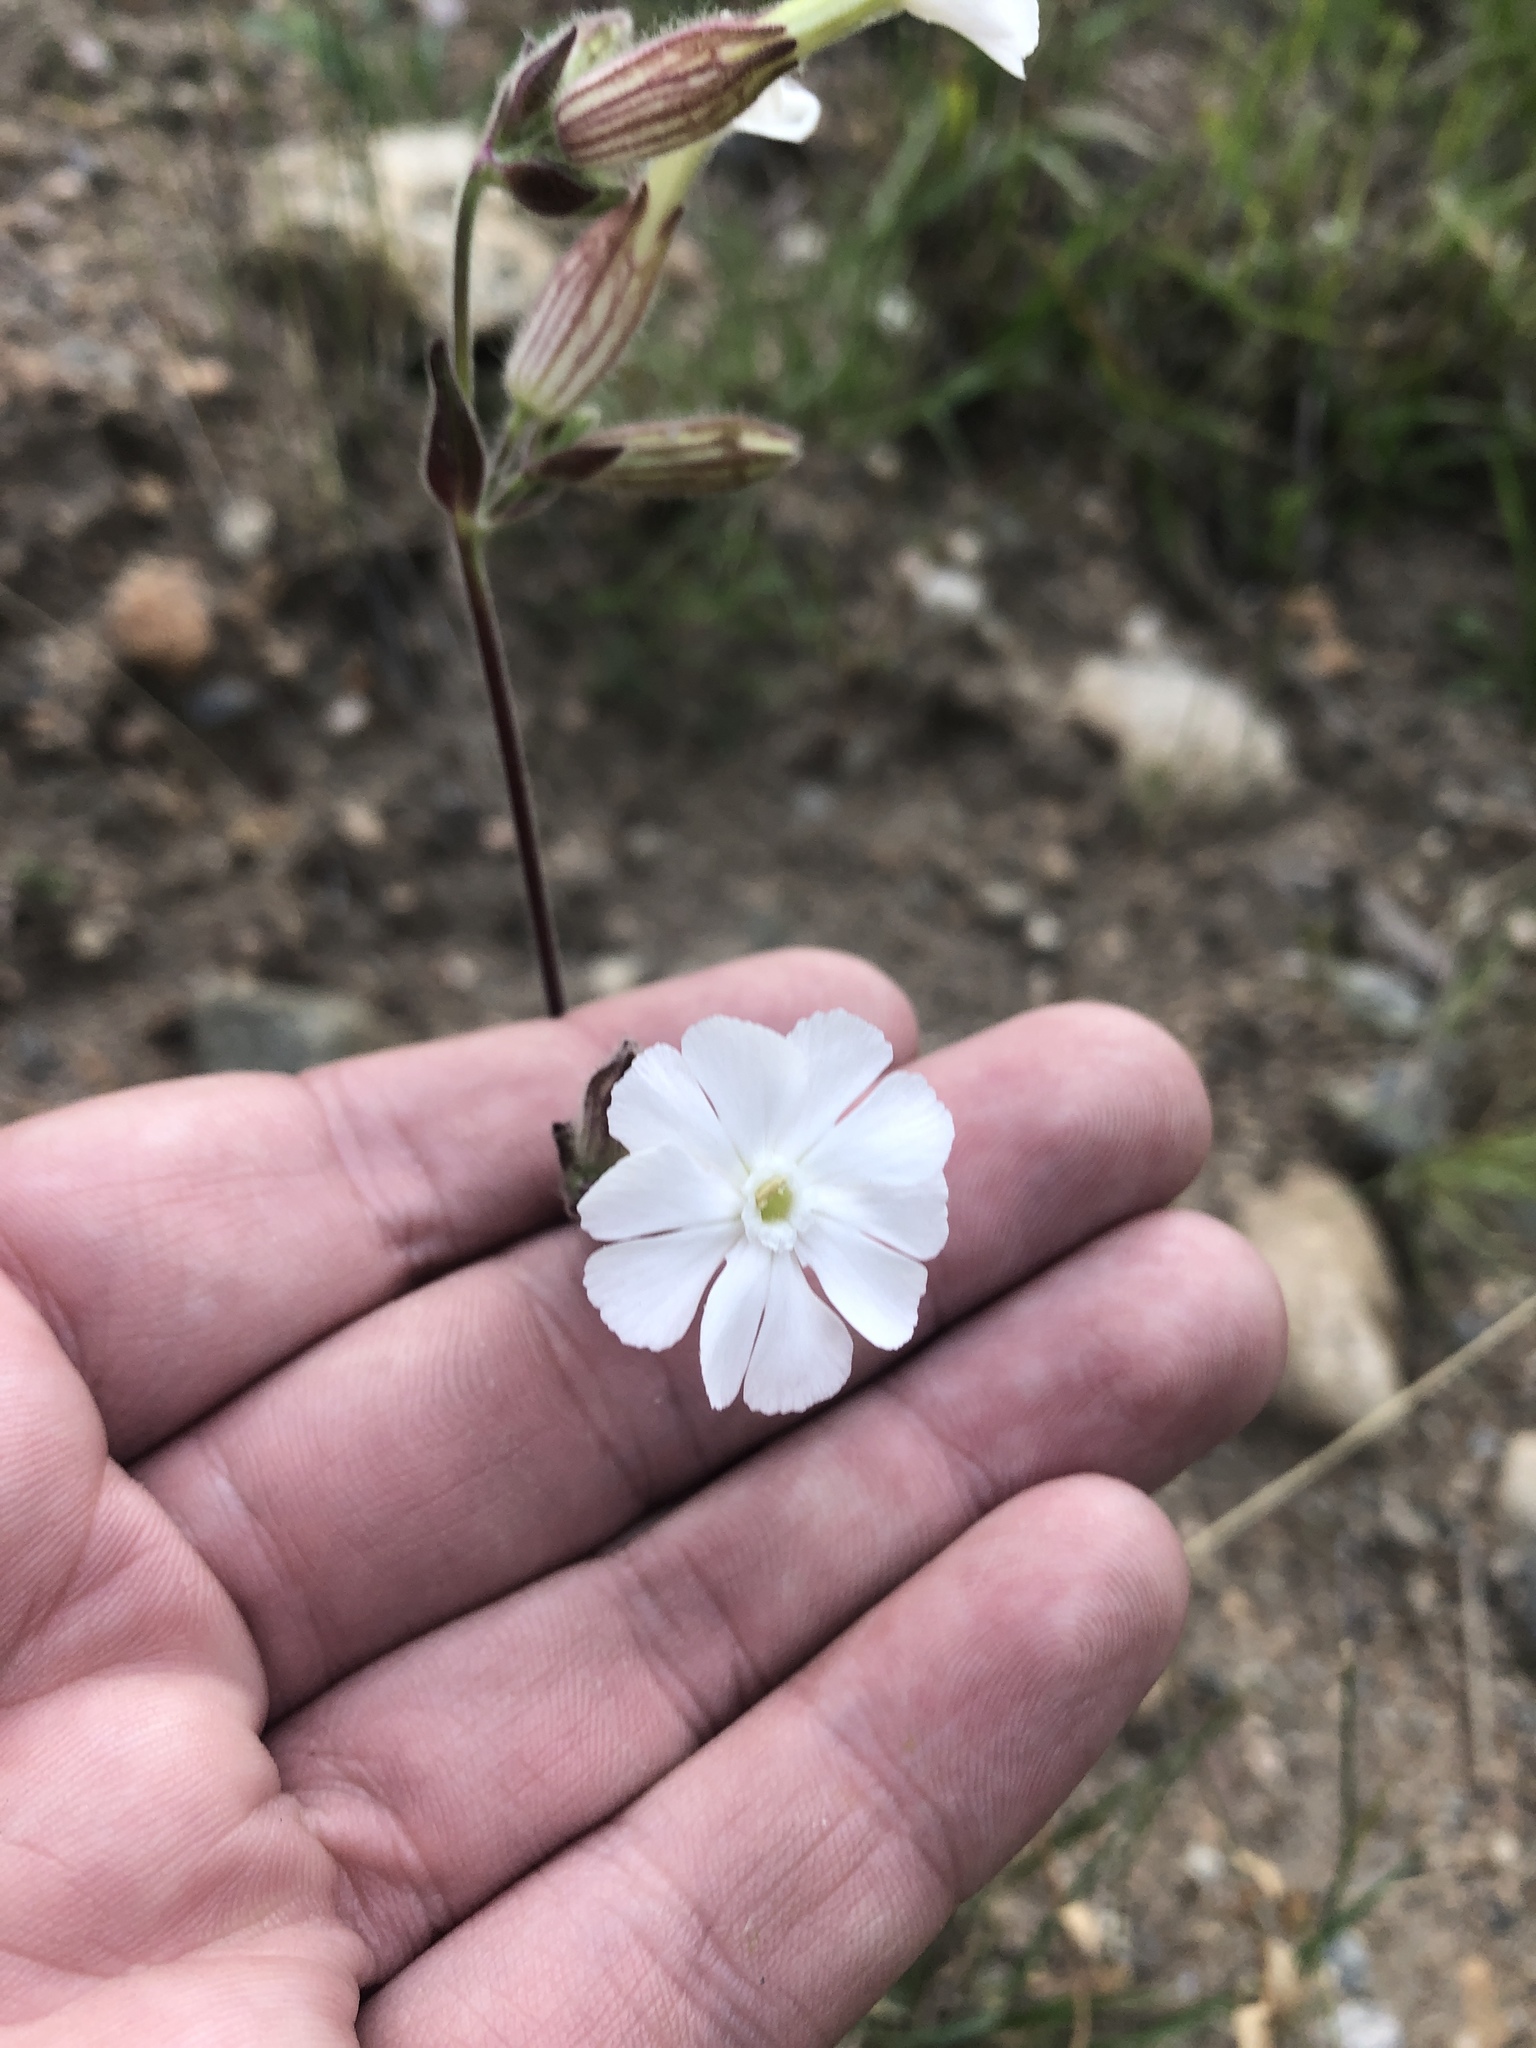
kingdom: Plantae
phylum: Tracheophyta
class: Magnoliopsida
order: Caryophyllales
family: Caryophyllaceae
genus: Silene
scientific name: Silene latifolia
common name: White campion
